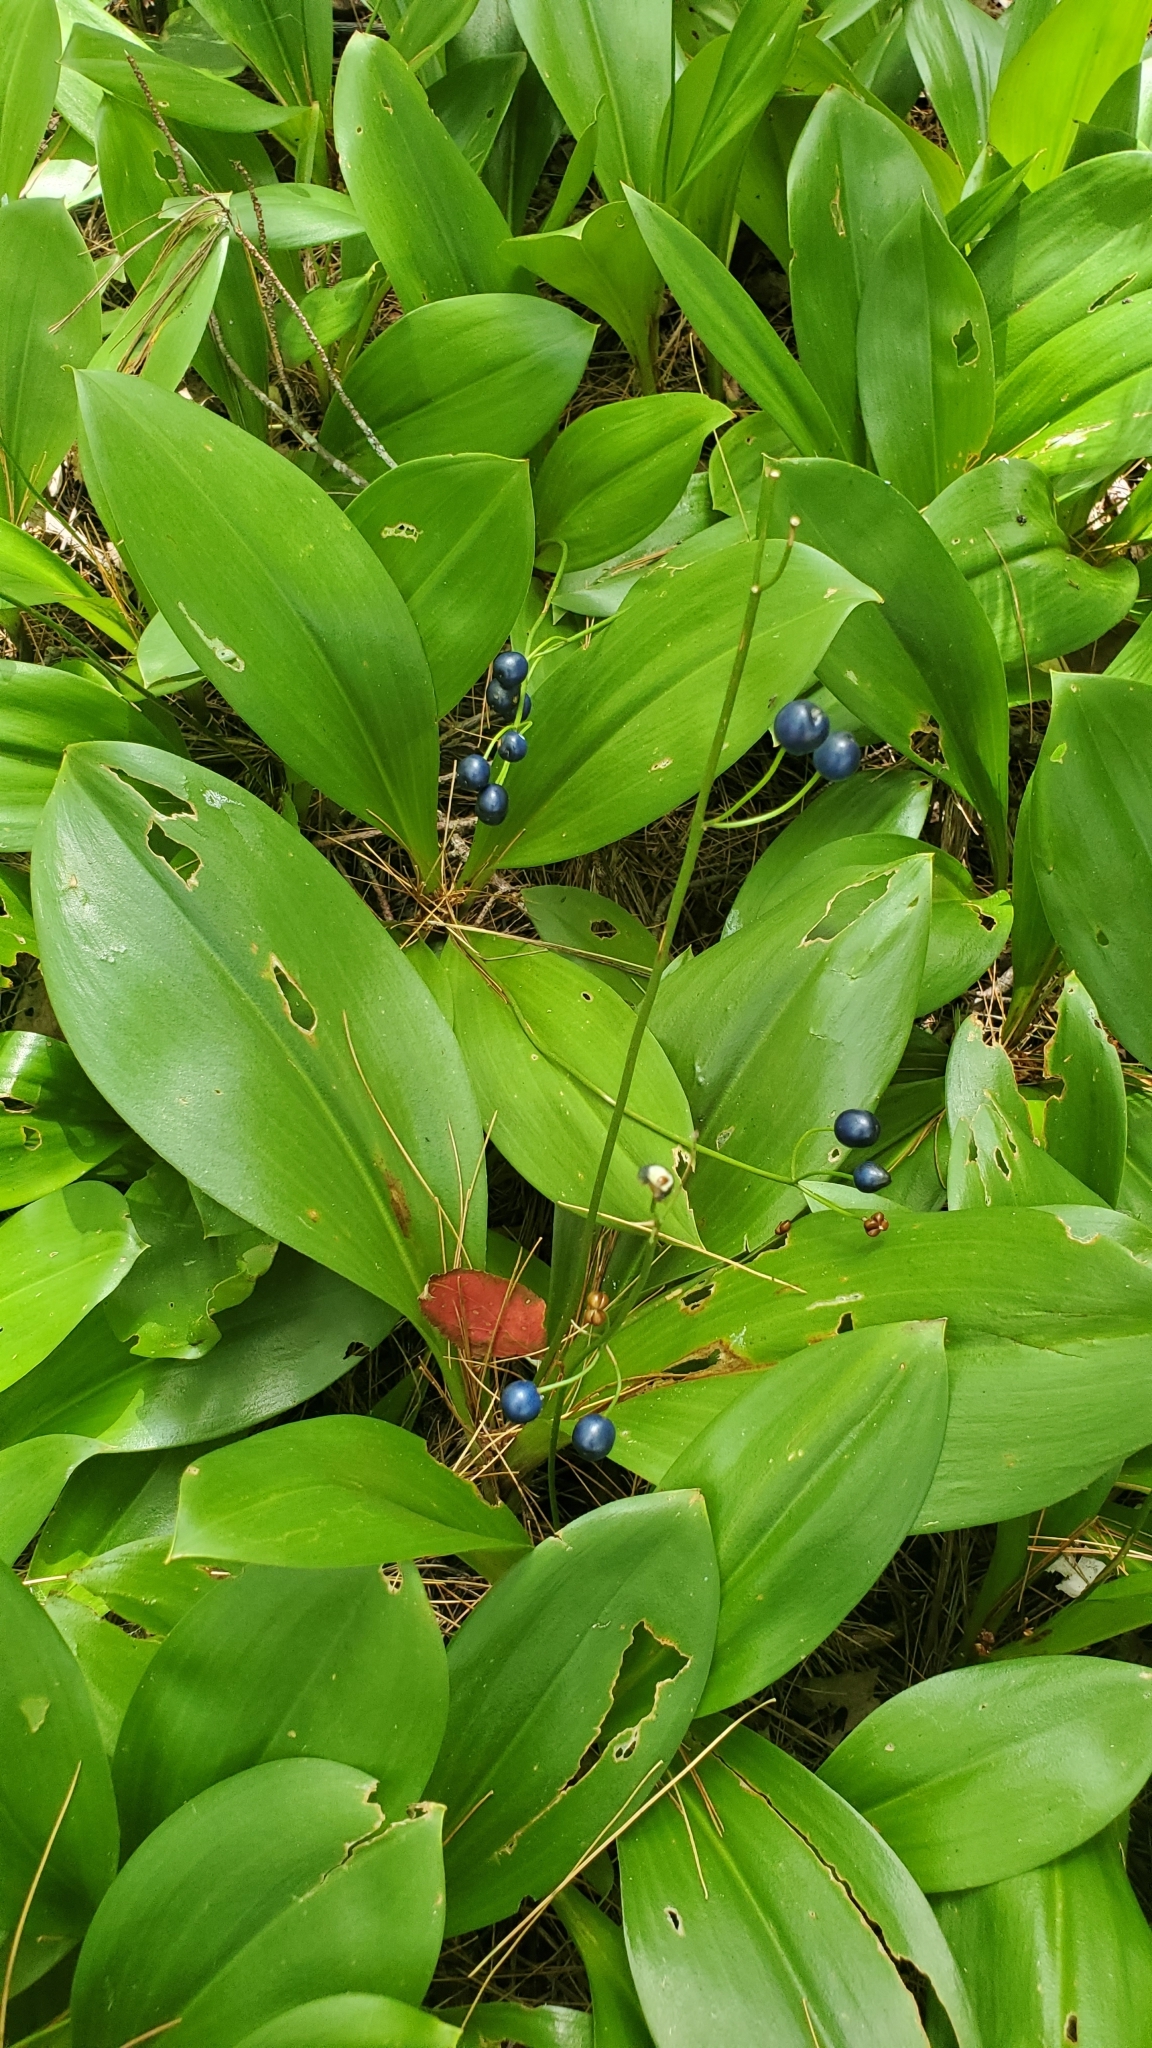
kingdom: Plantae
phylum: Tracheophyta
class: Liliopsida
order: Liliales
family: Liliaceae
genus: Clintonia
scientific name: Clintonia borealis
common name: Yellow clintonia
